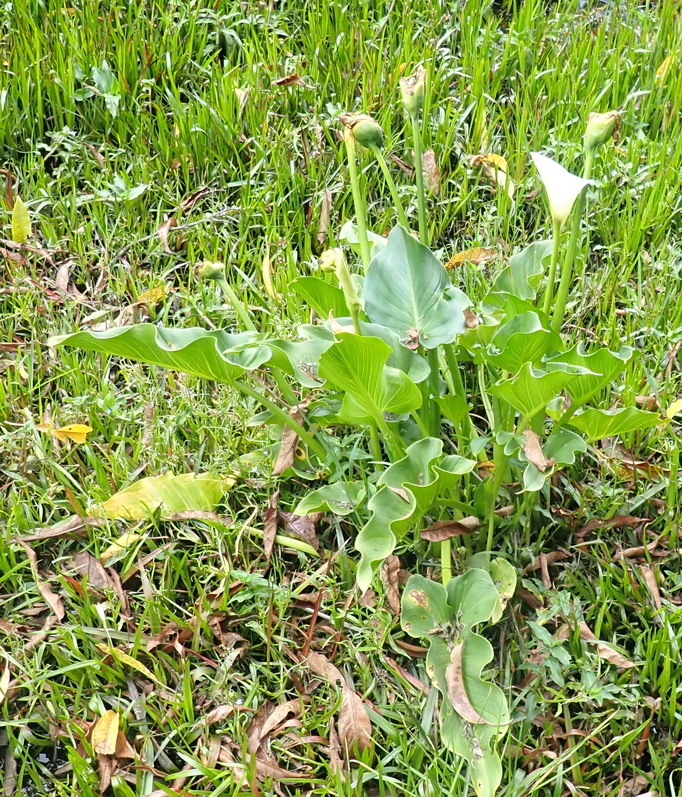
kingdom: Plantae
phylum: Tracheophyta
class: Liliopsida
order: Alismatales
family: Araceae
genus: Zantedeschia
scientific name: Zantedeschia aethiopica
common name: Altar-lily
